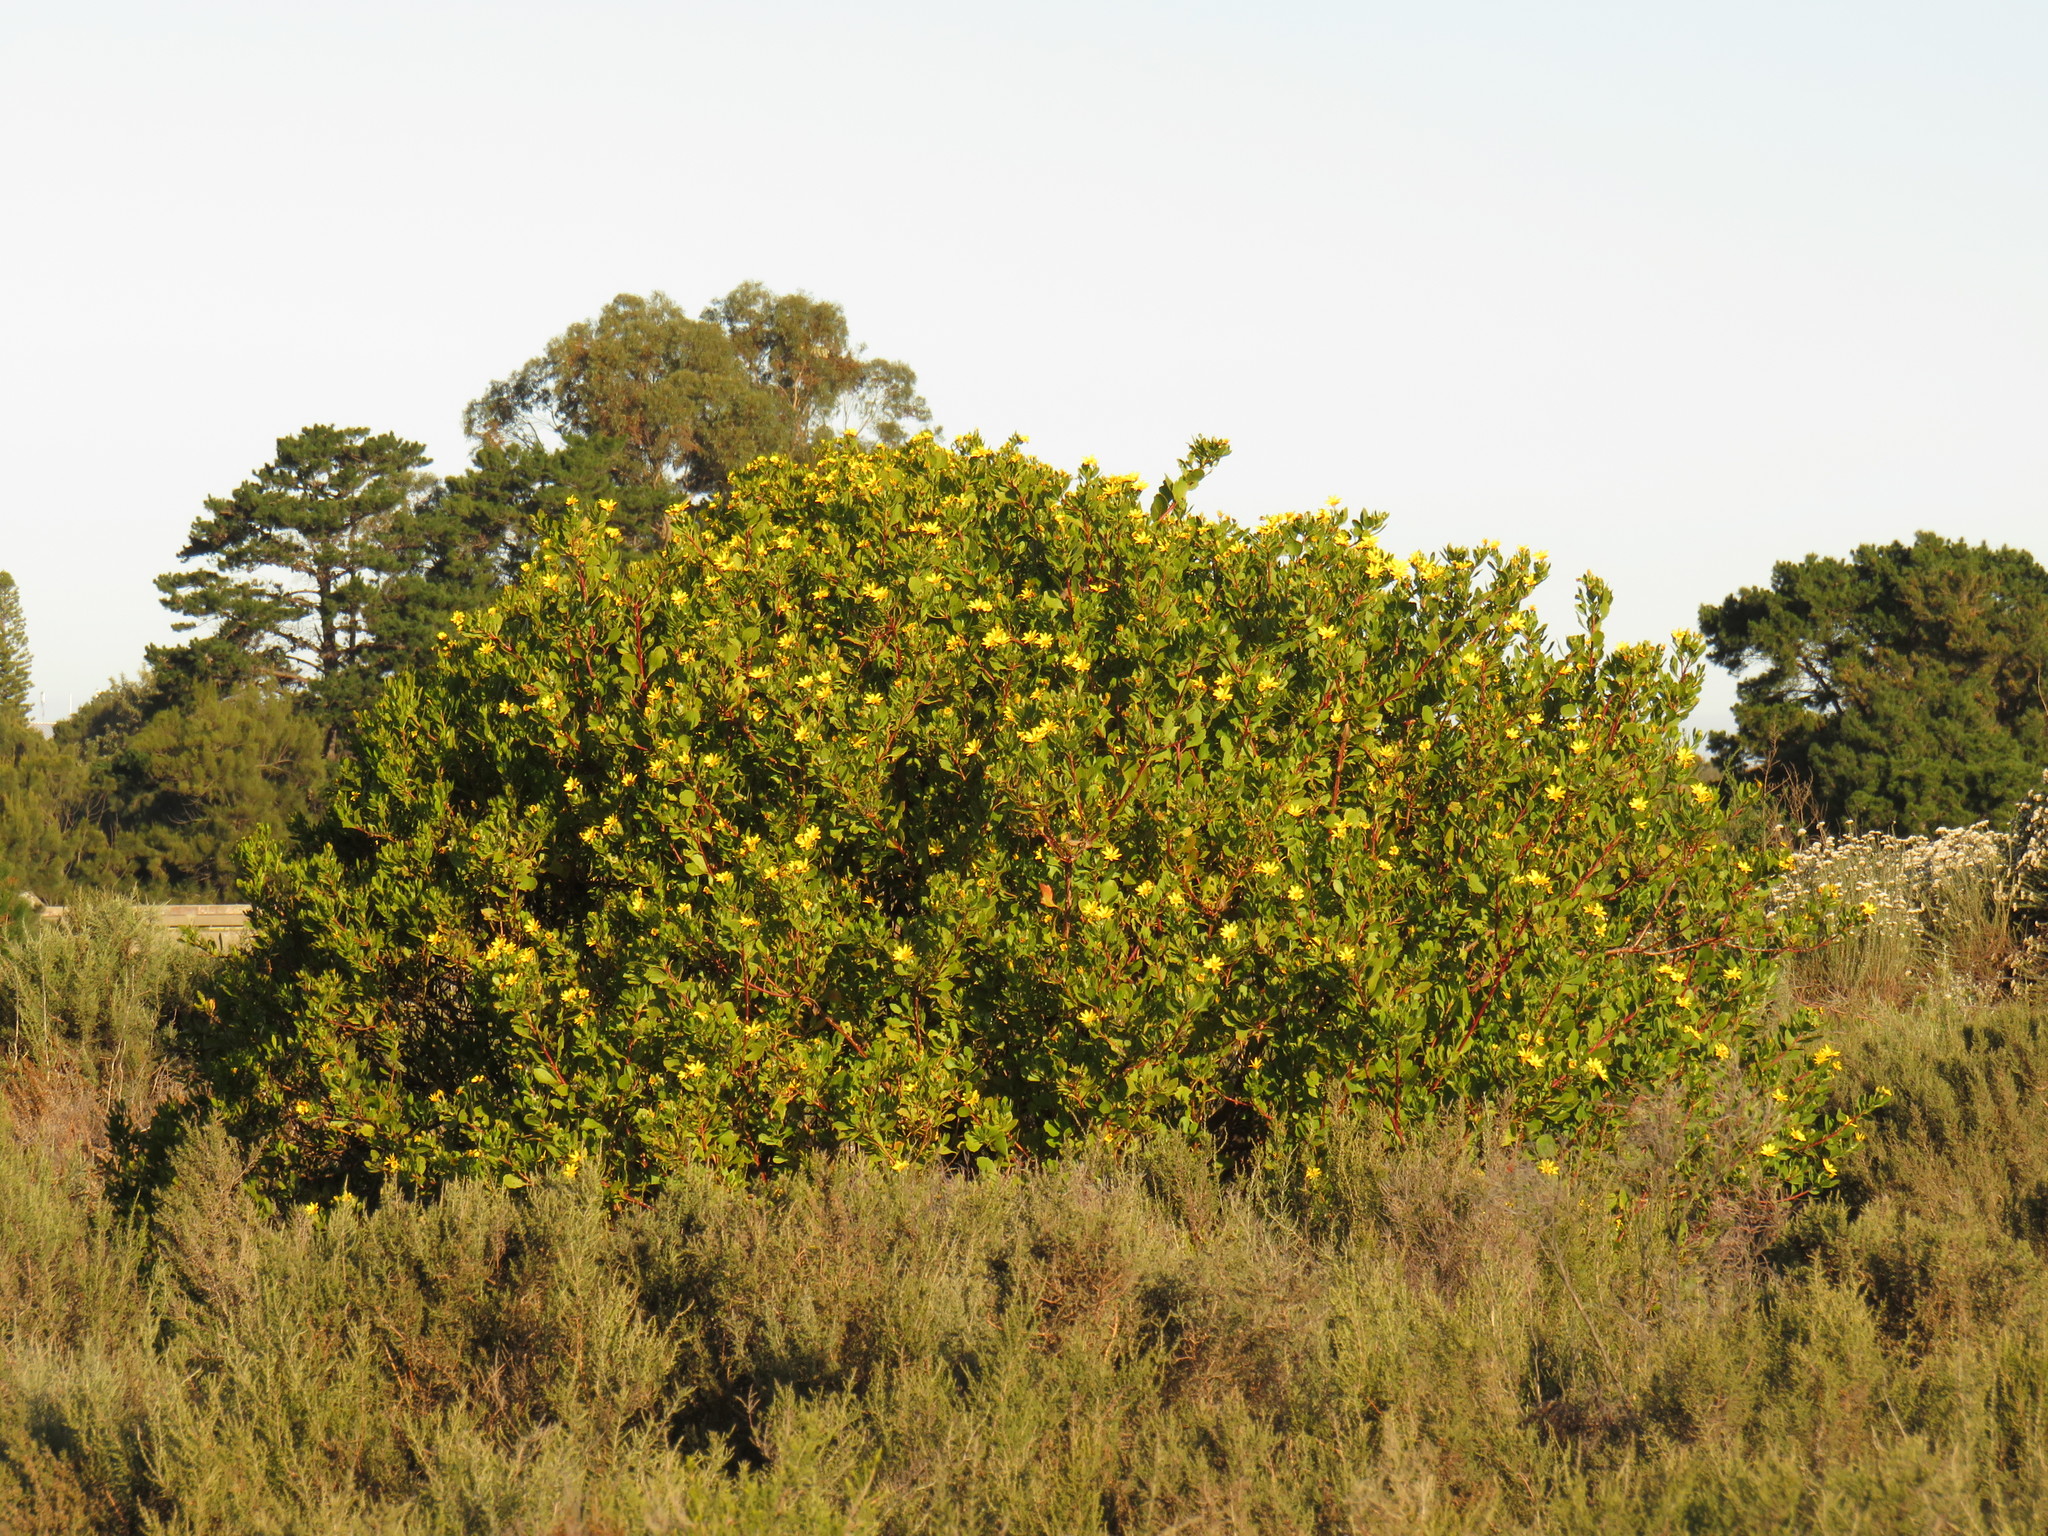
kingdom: Plantae
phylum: Tracheophyta
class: Magnoliopsida
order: Asterales
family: Asteraceae
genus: Osteospermum
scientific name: Osteospermum moniliferum
